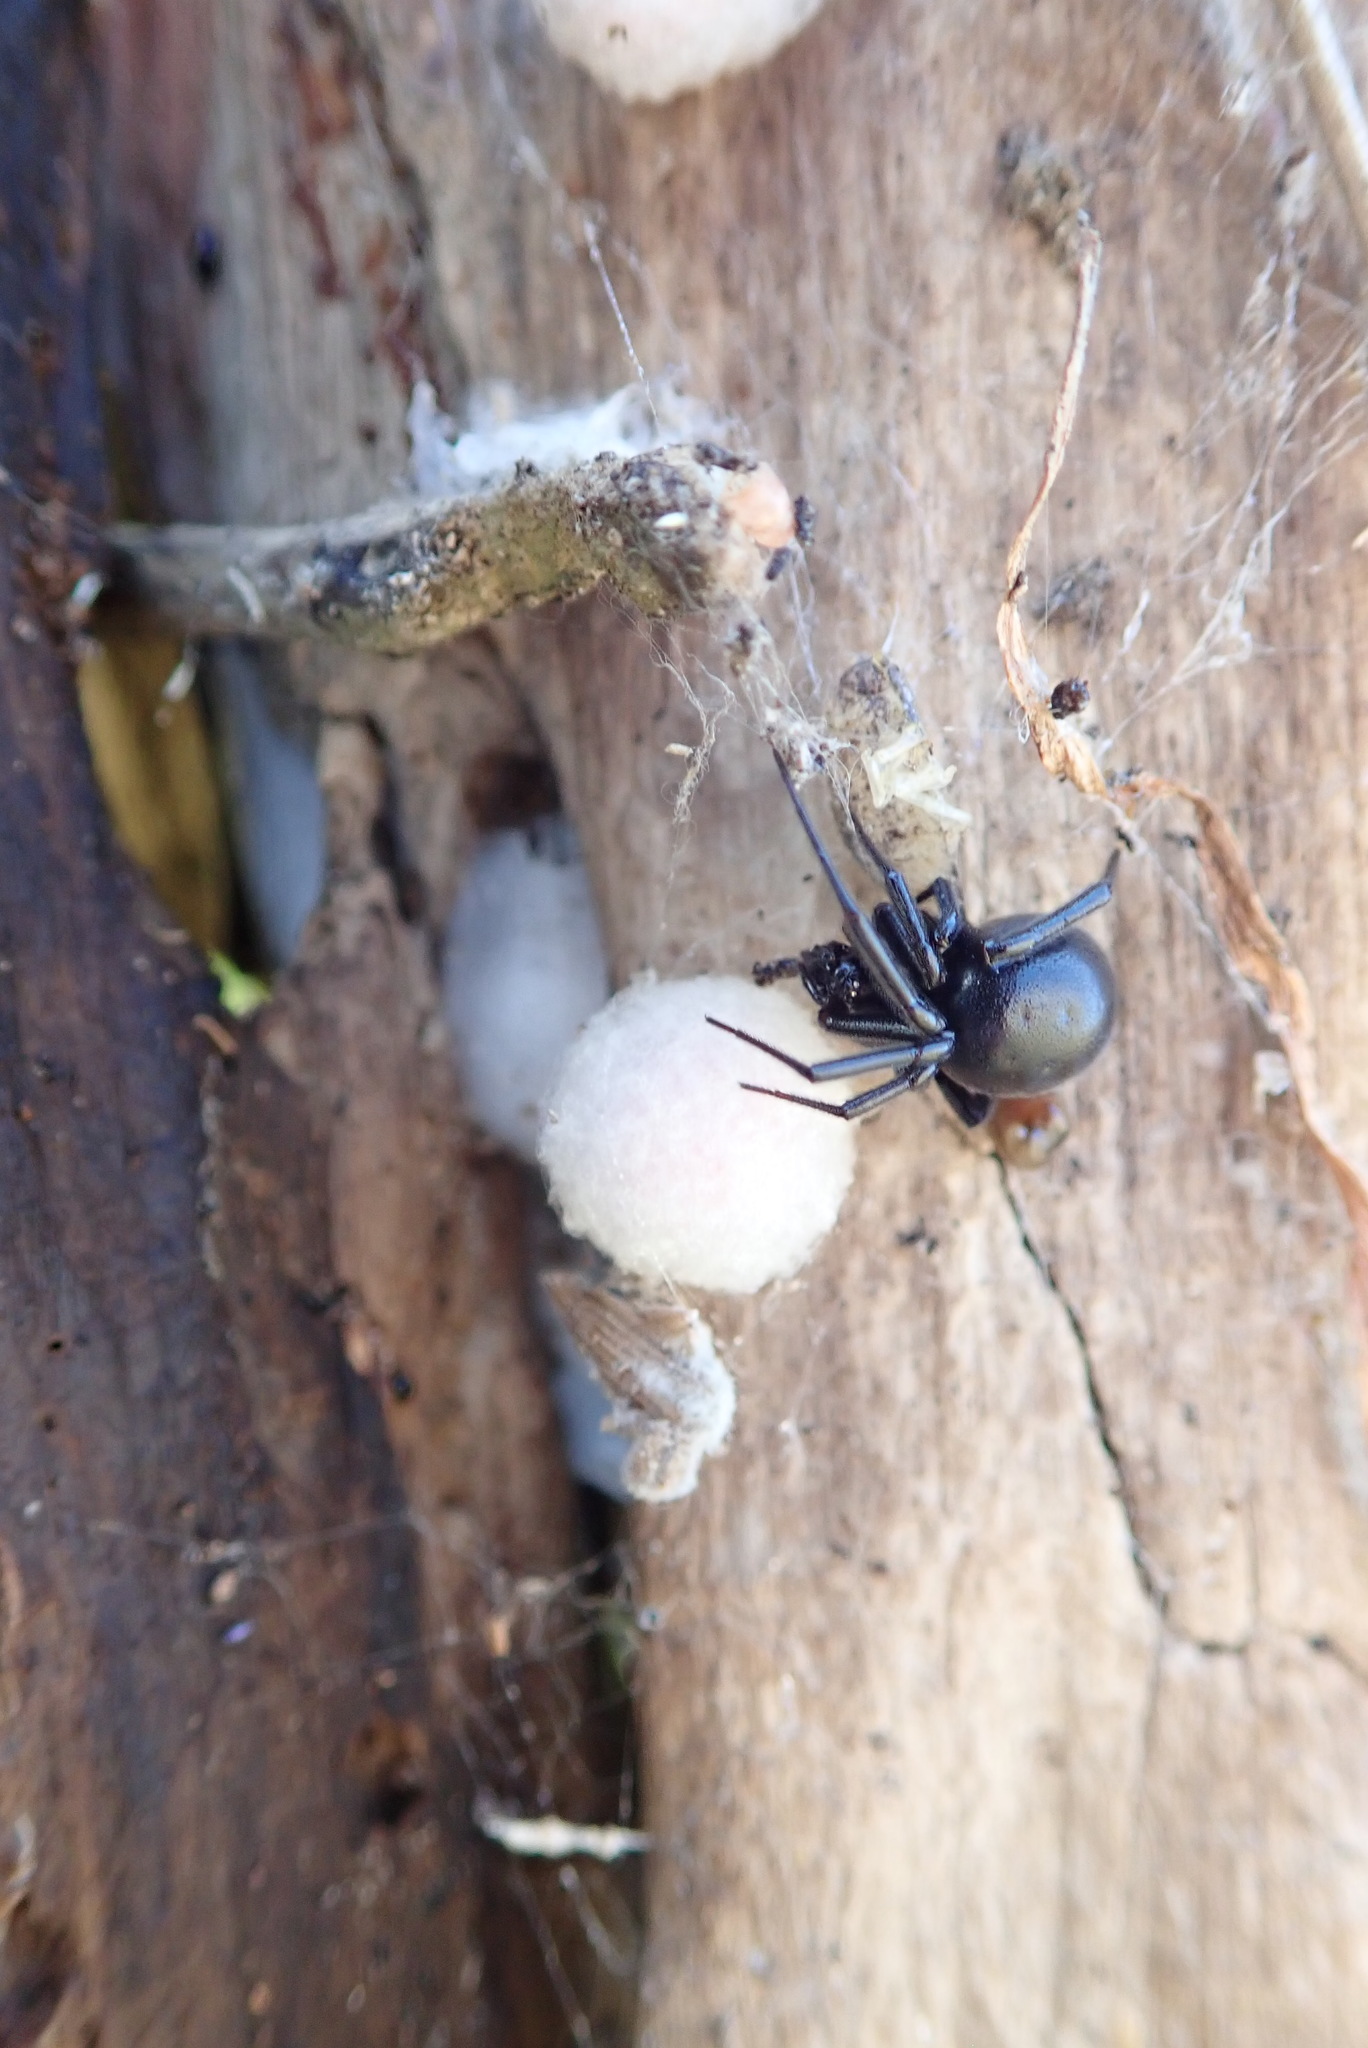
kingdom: Animalia
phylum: Arthropoda
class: Arachnida
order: Araneae
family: Theridiidae
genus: Steatoda
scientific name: Steatoda capensis
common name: Cobweb weaver
